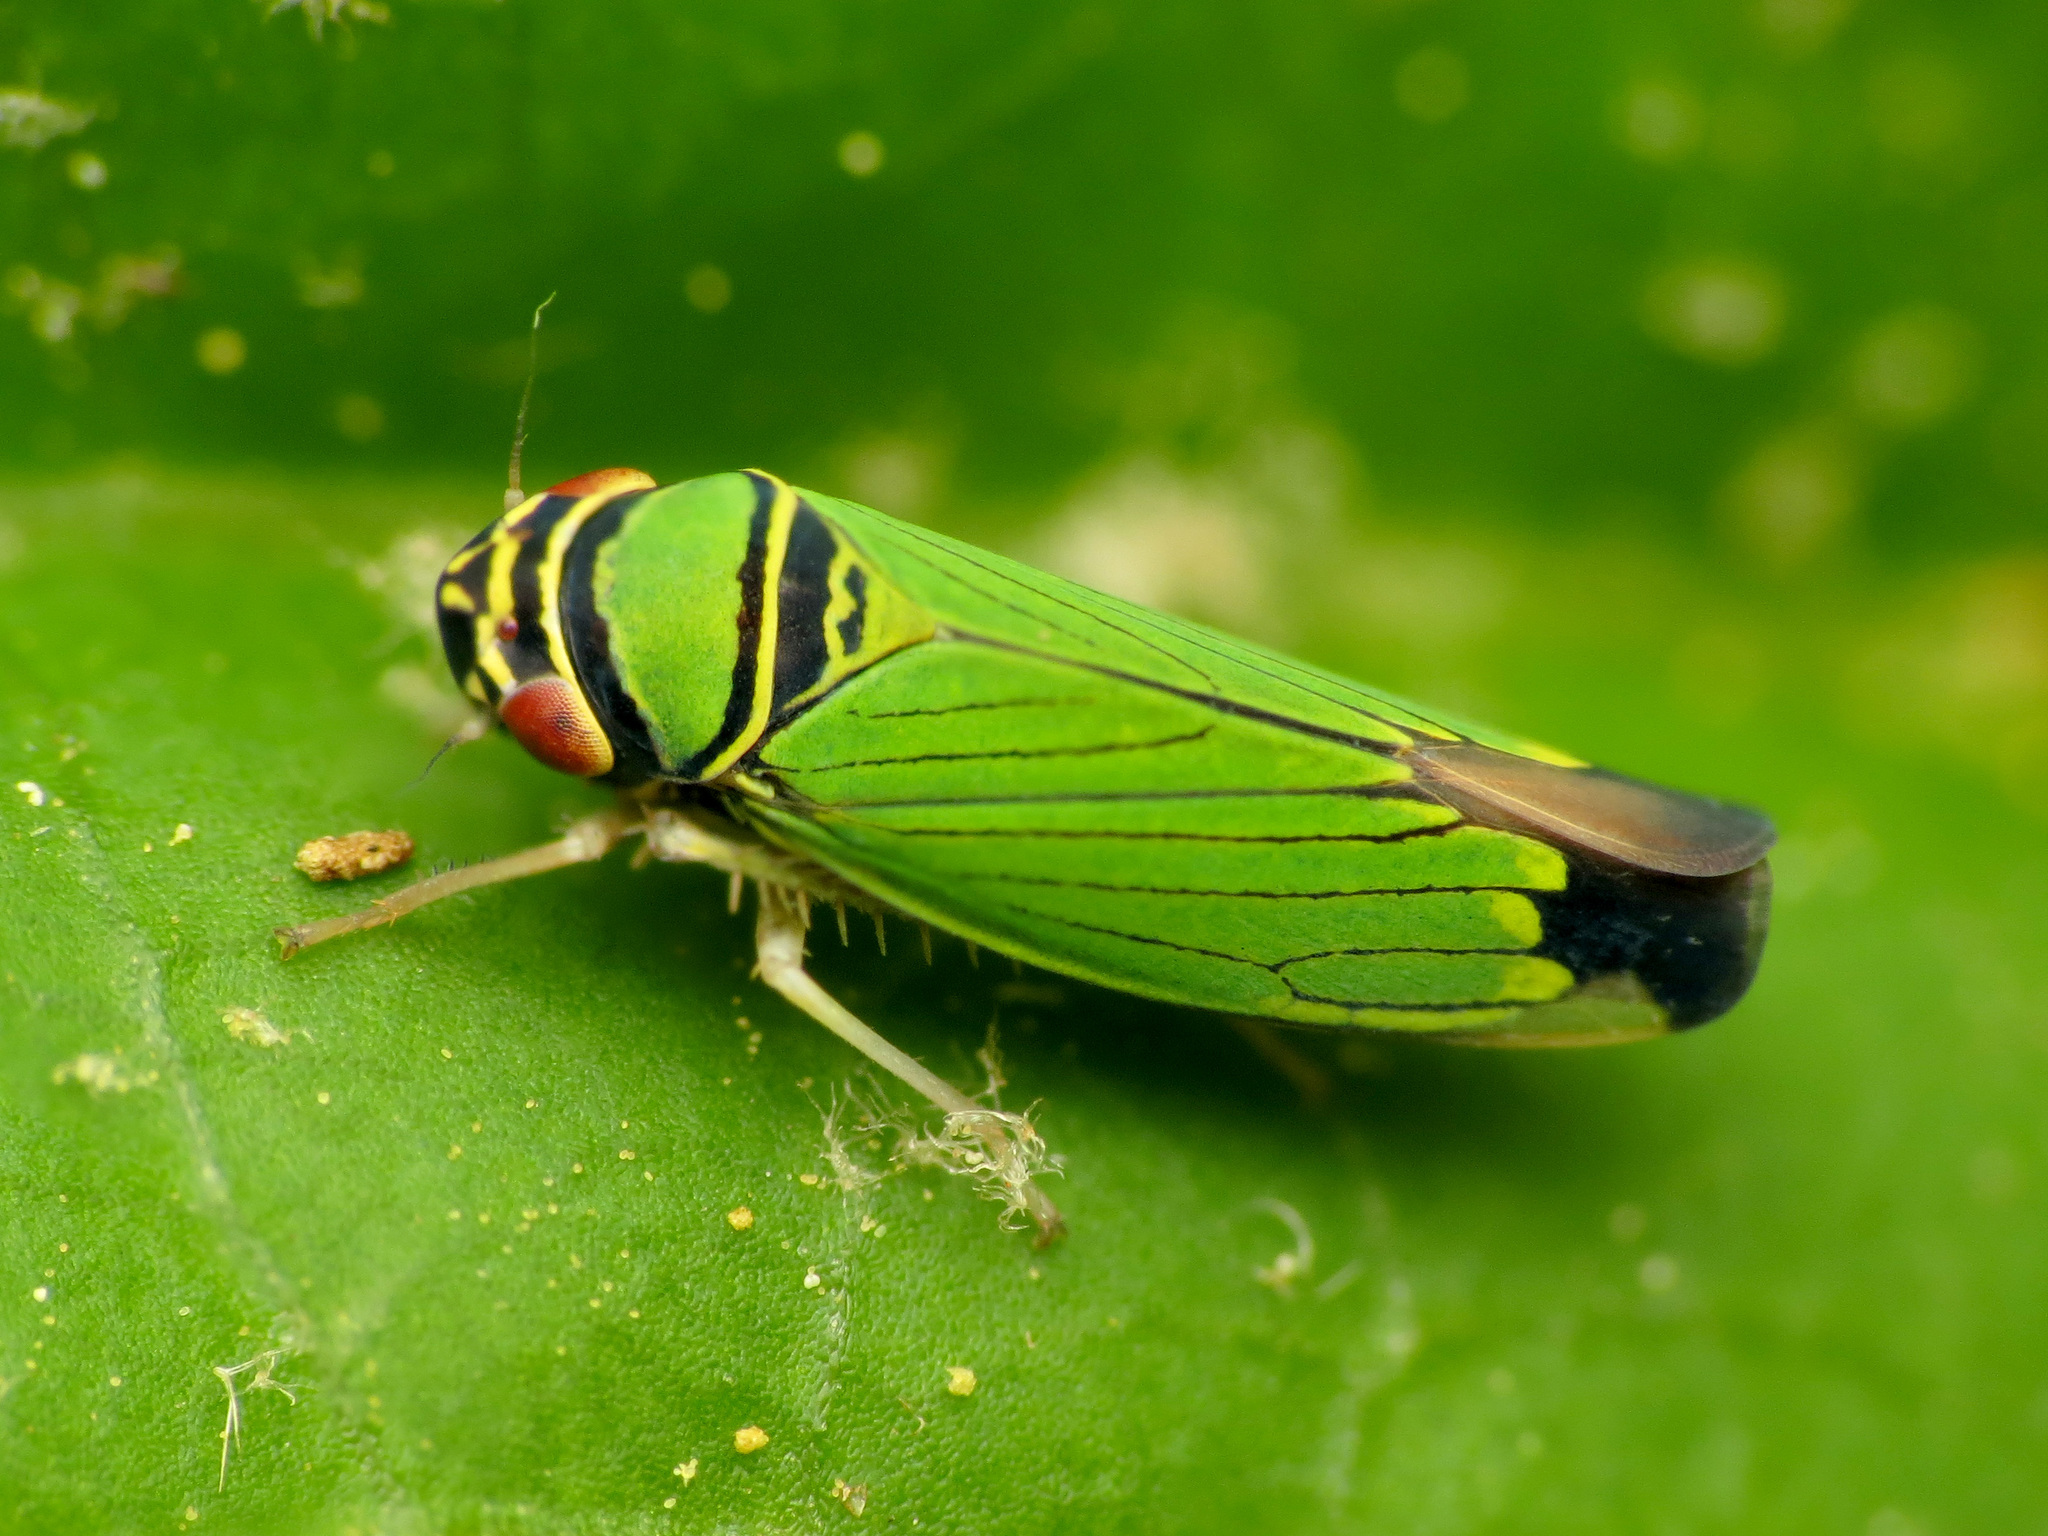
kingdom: Animalia
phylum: Arthropoda
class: Insecta
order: Hemiptera
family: Cicadellidae
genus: Tylozygus
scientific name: Tylozygus geometricus
